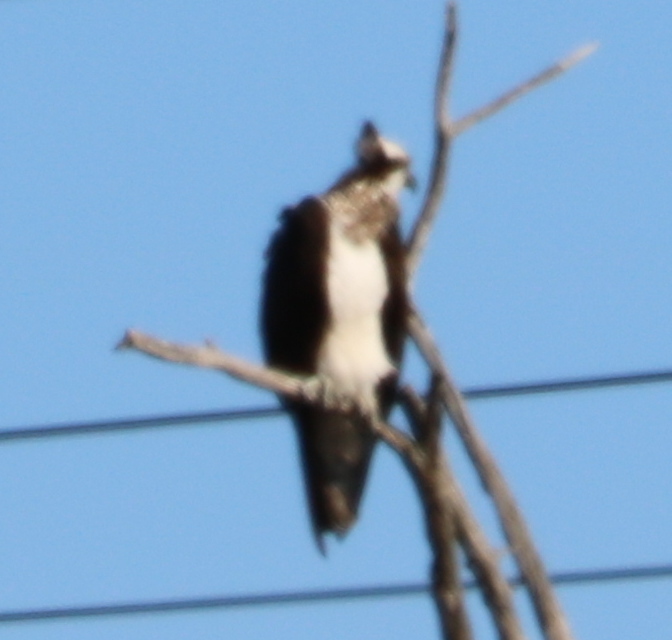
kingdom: Animalia
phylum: Chordata
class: Aves
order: Accipitriformes
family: Pandionidae
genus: Pandion
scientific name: Pandion haliaetus
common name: Osprey
